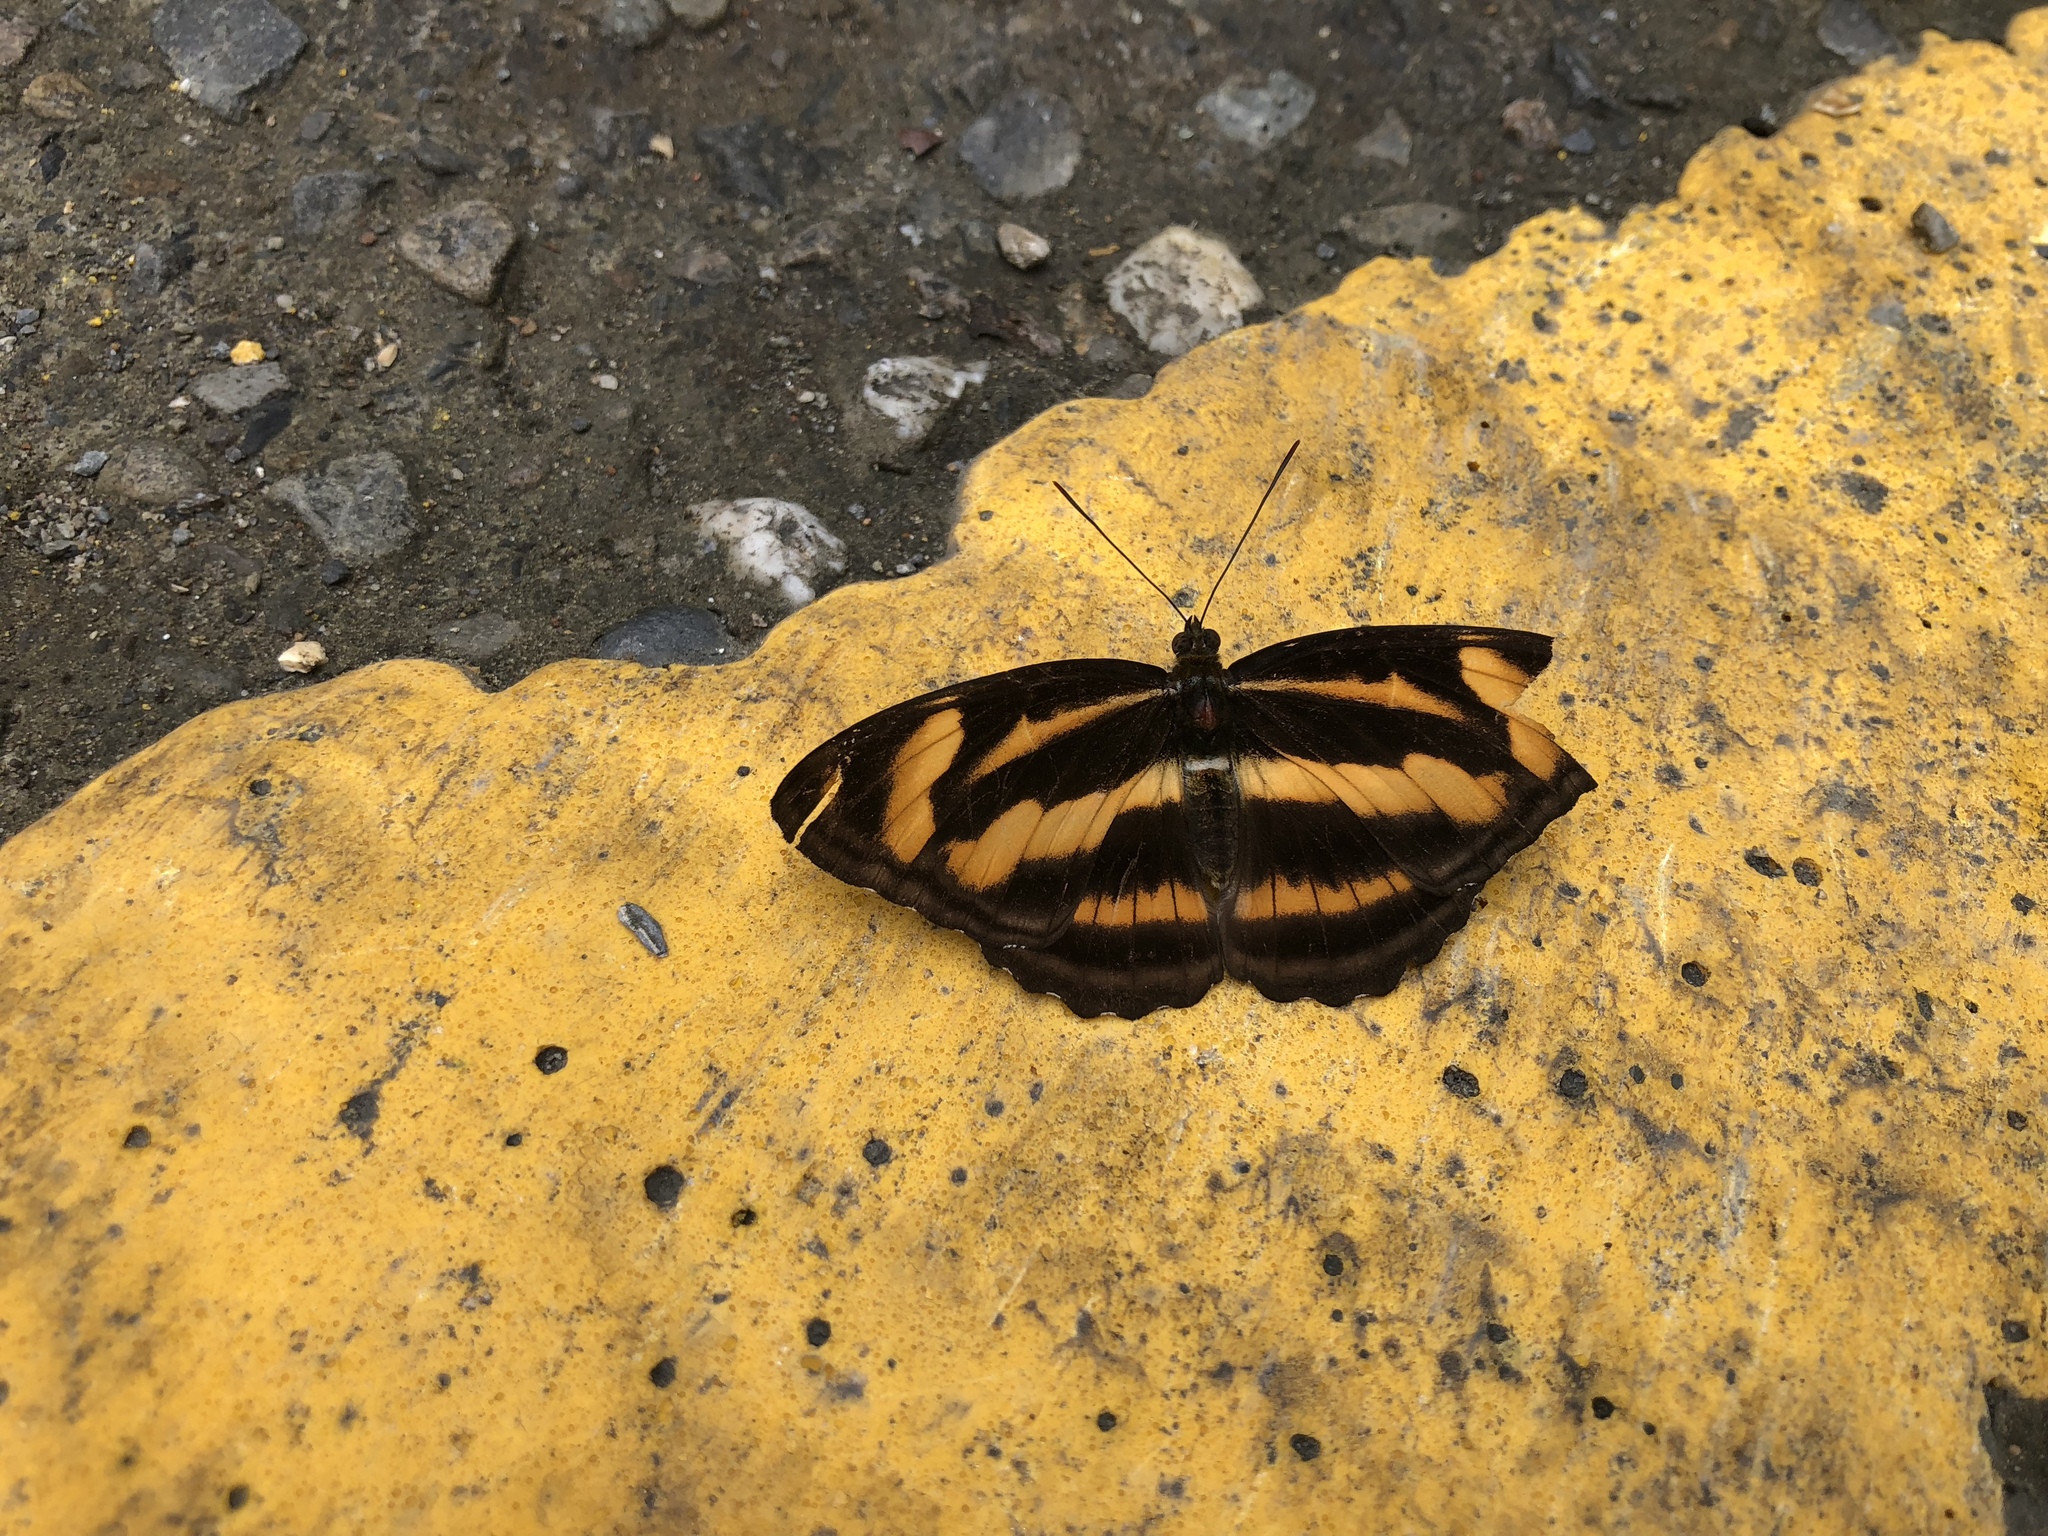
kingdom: Animalia
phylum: Arthropoda
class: Insecta
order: Lepidoptera
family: Nymphalidae
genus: Pantoporia
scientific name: Pantoporia cama
